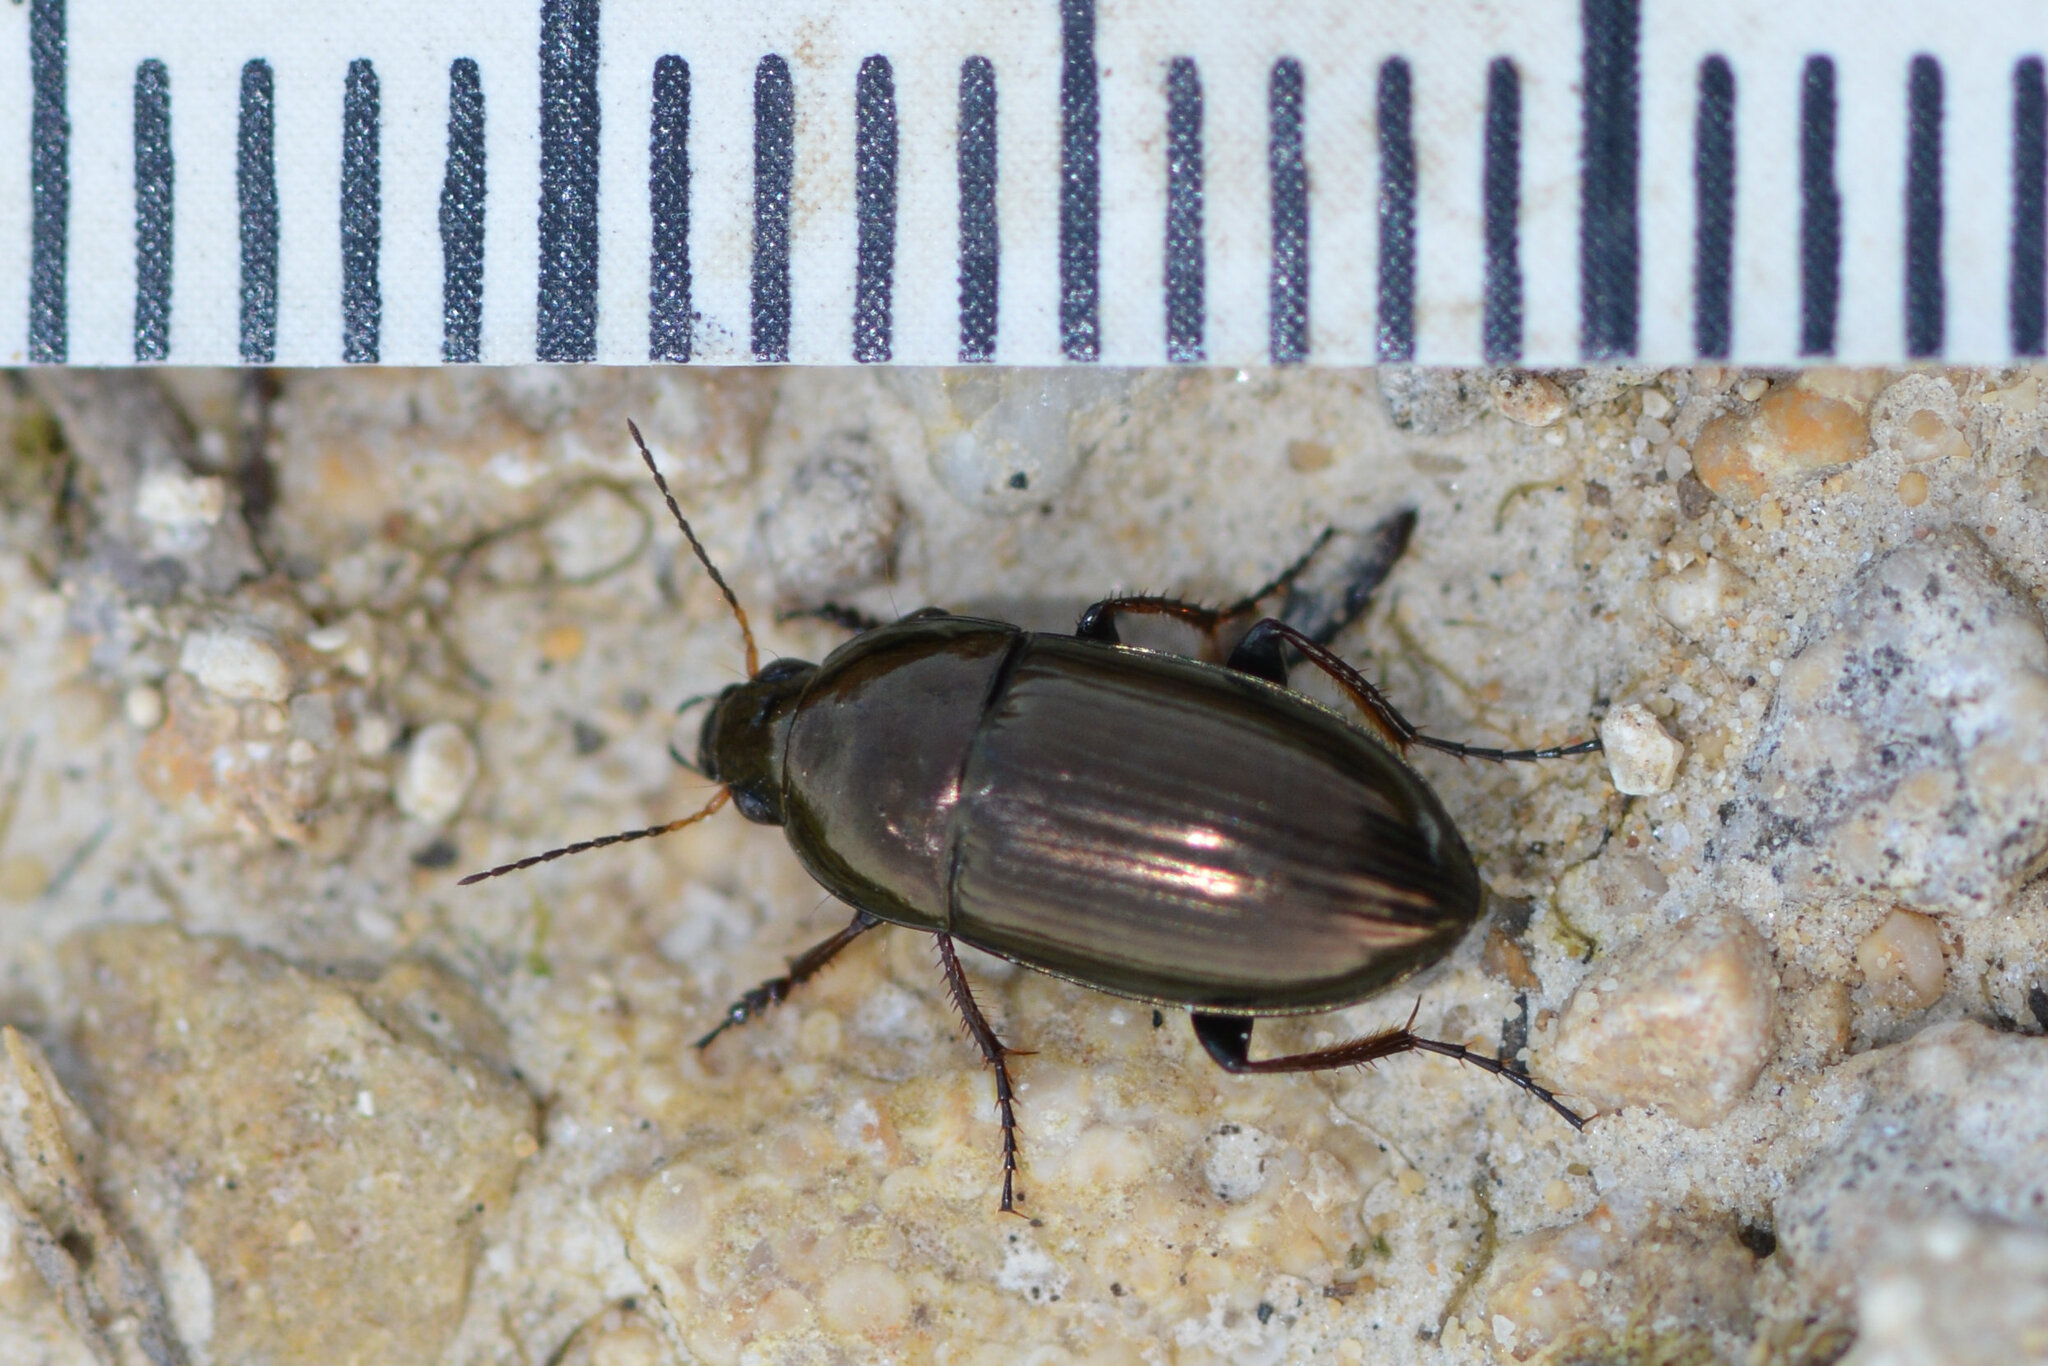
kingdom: Animalia
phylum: Arthropoda
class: Insecta
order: Coleoptera
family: Carabidae
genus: Amara
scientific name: Amara aenea
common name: Common sun beetle
